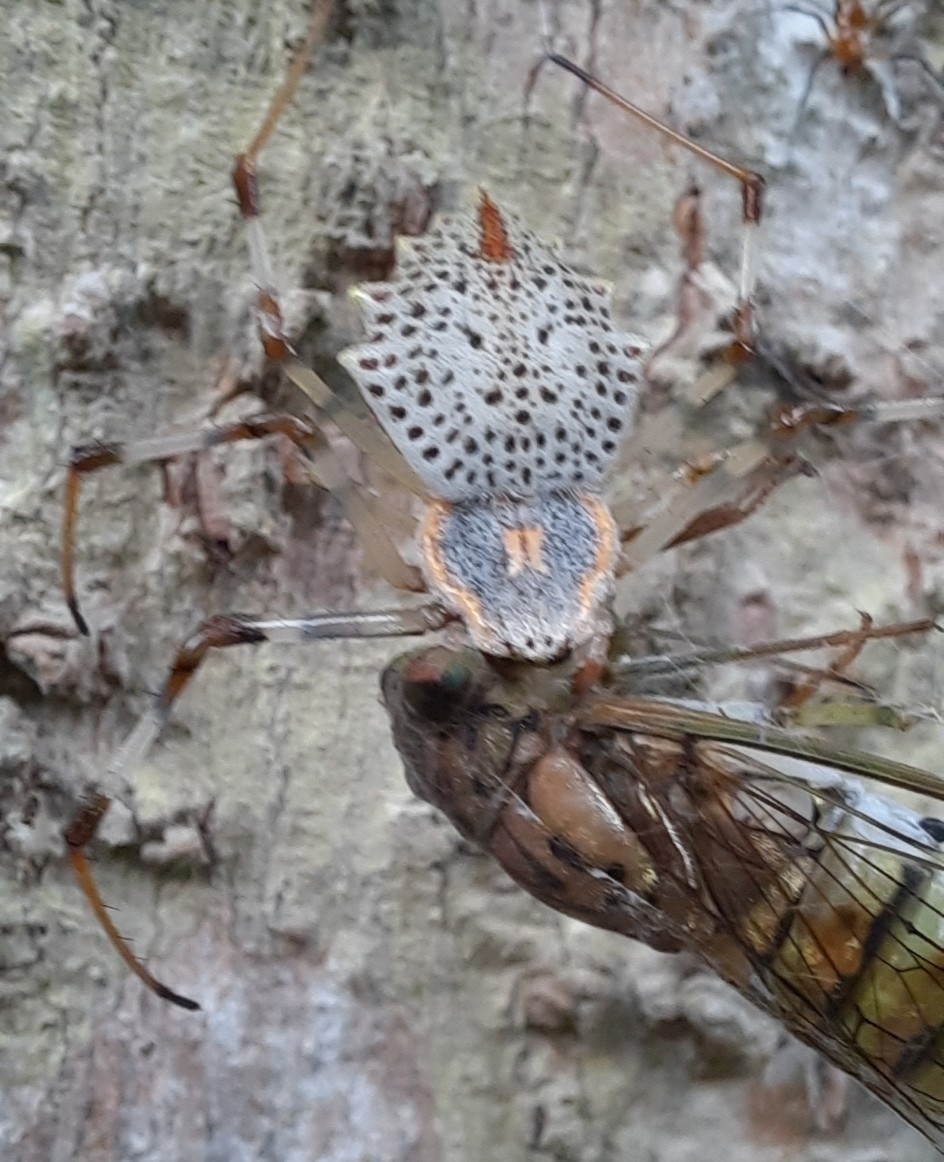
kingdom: Animalia
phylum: Arthropoda
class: Arachnida
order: Araneae
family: Araneidae
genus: Herennia
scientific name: Herennia multipuncta
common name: Spotted coin spider
